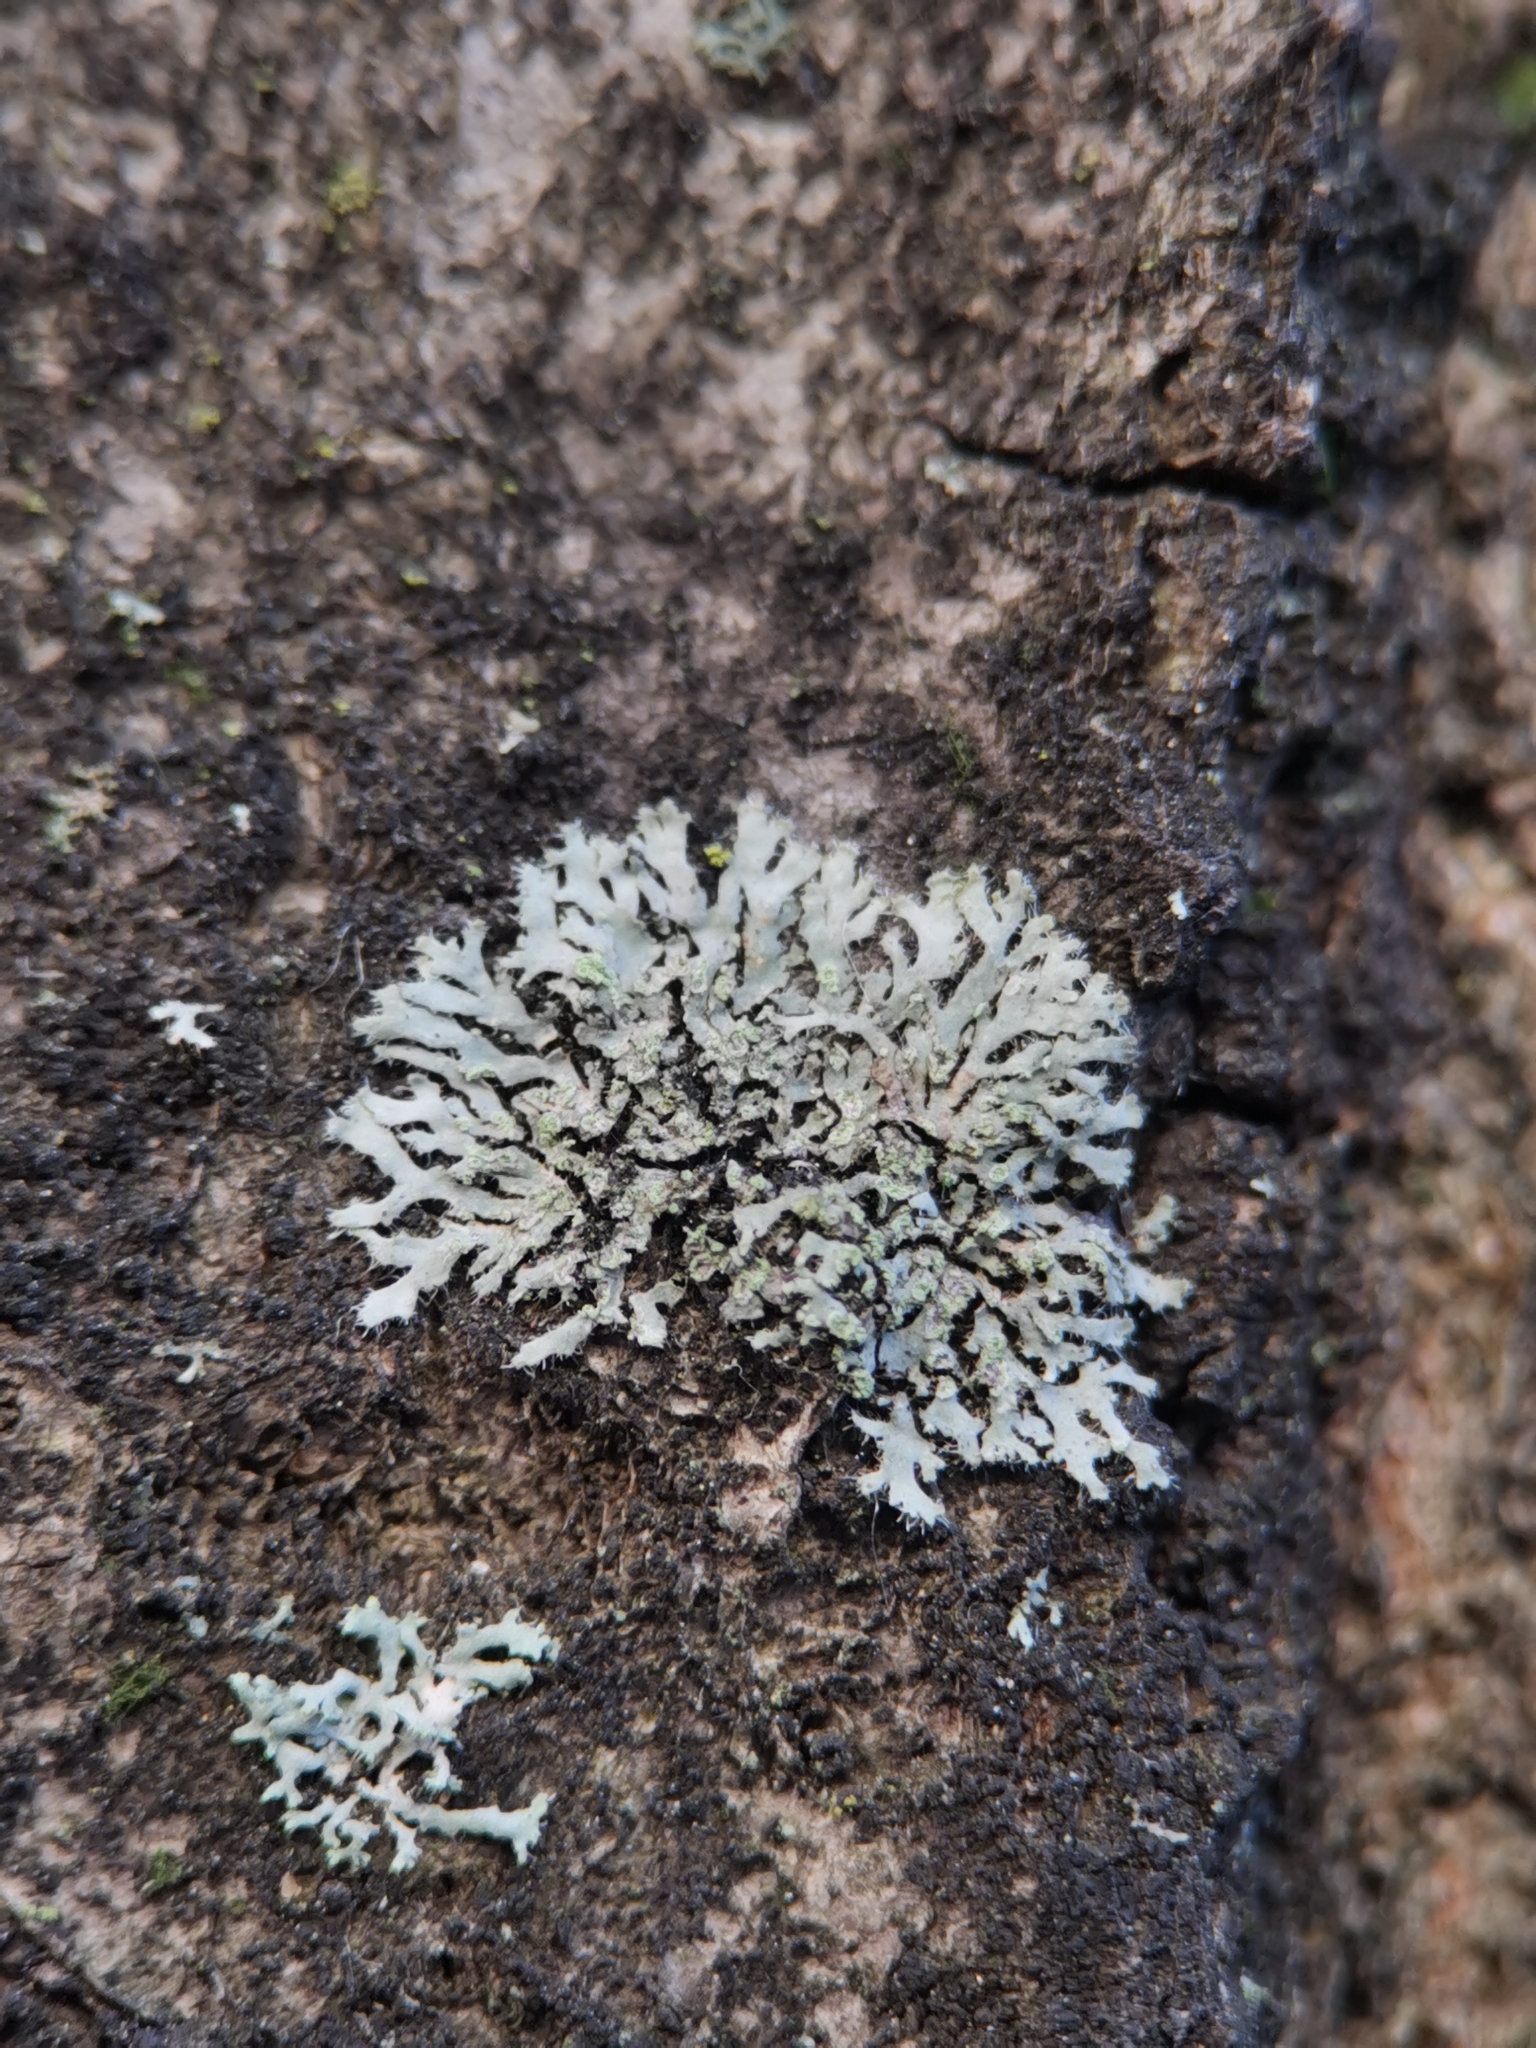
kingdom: Fungi
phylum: Ascomycota
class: Lecanoromycetes
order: Caliciales
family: Physciaceae
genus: Phaeophyscia
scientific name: Phaeophyscia orbicularis
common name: Mealy shadow lichen
